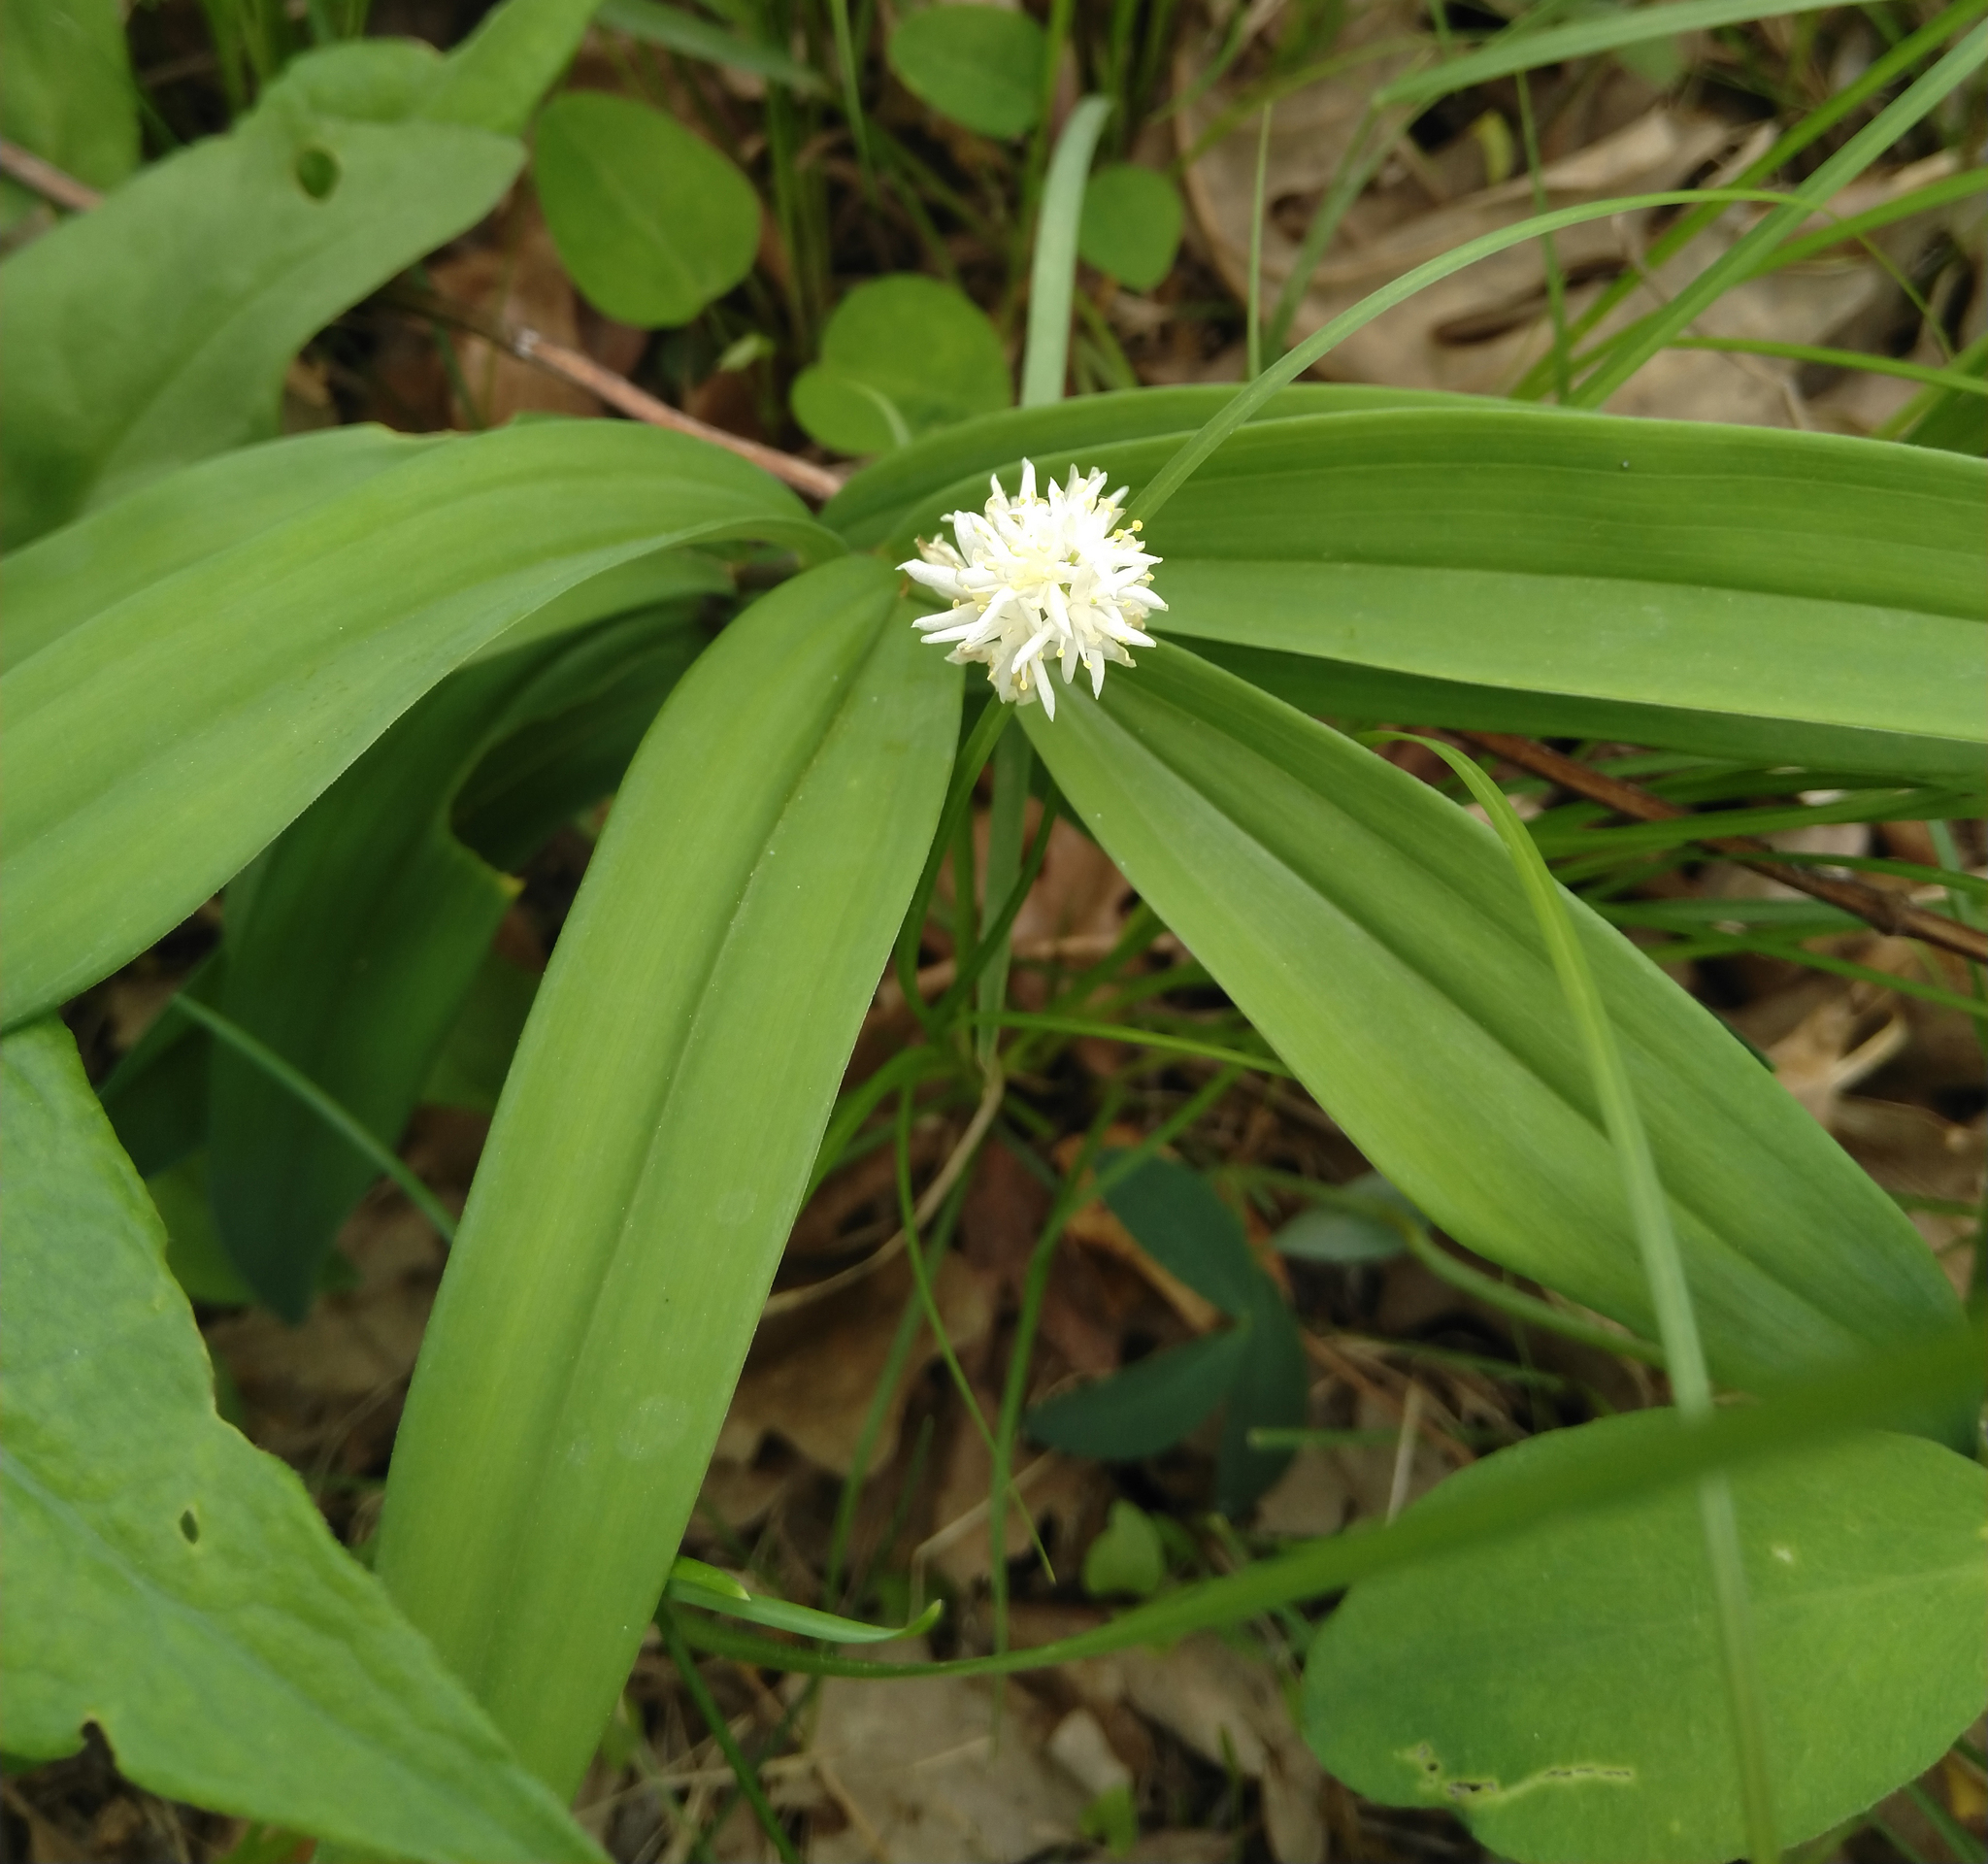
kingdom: Plantae
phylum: Tracheophyta
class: Liliopsida
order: Asparagales
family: Asparagaceae
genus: Maianthemum
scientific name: Maianthemum stellatum
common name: Little false solomon's seal
